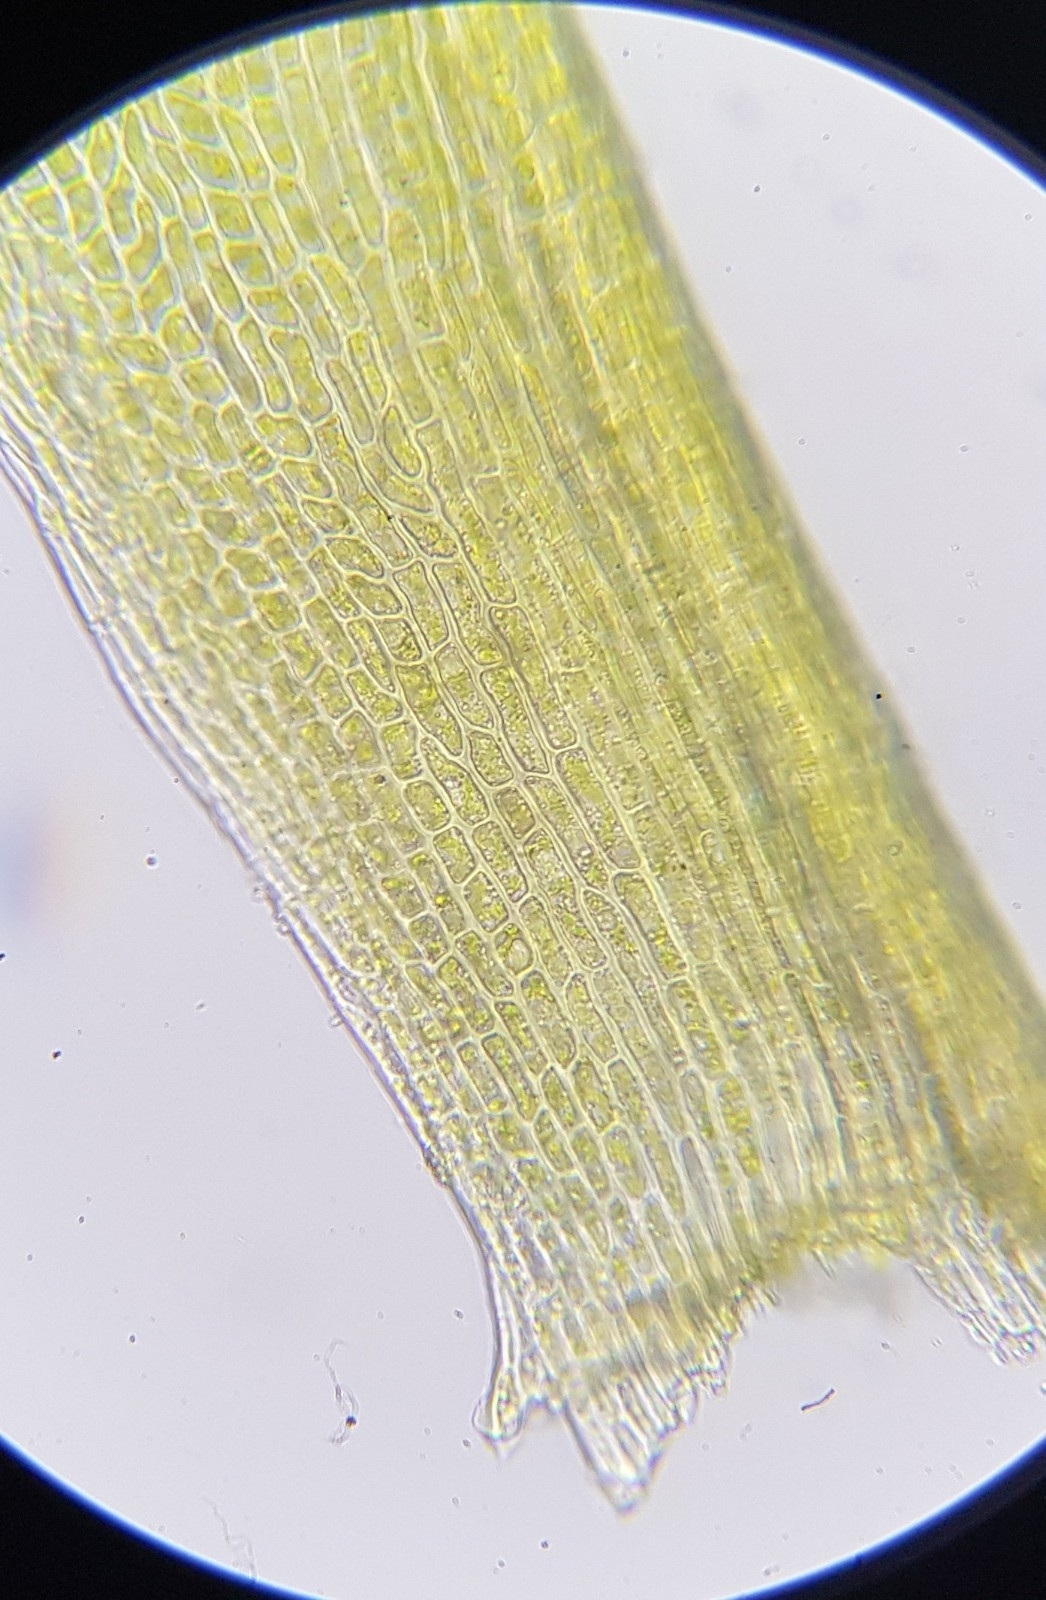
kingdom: Plantae
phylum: Bryophyta
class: Bryopsida
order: Scouleriales
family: Flexitrichaceae
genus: Flexitrichum
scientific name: Flexitrichum gracile
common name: Slender ditrichum
